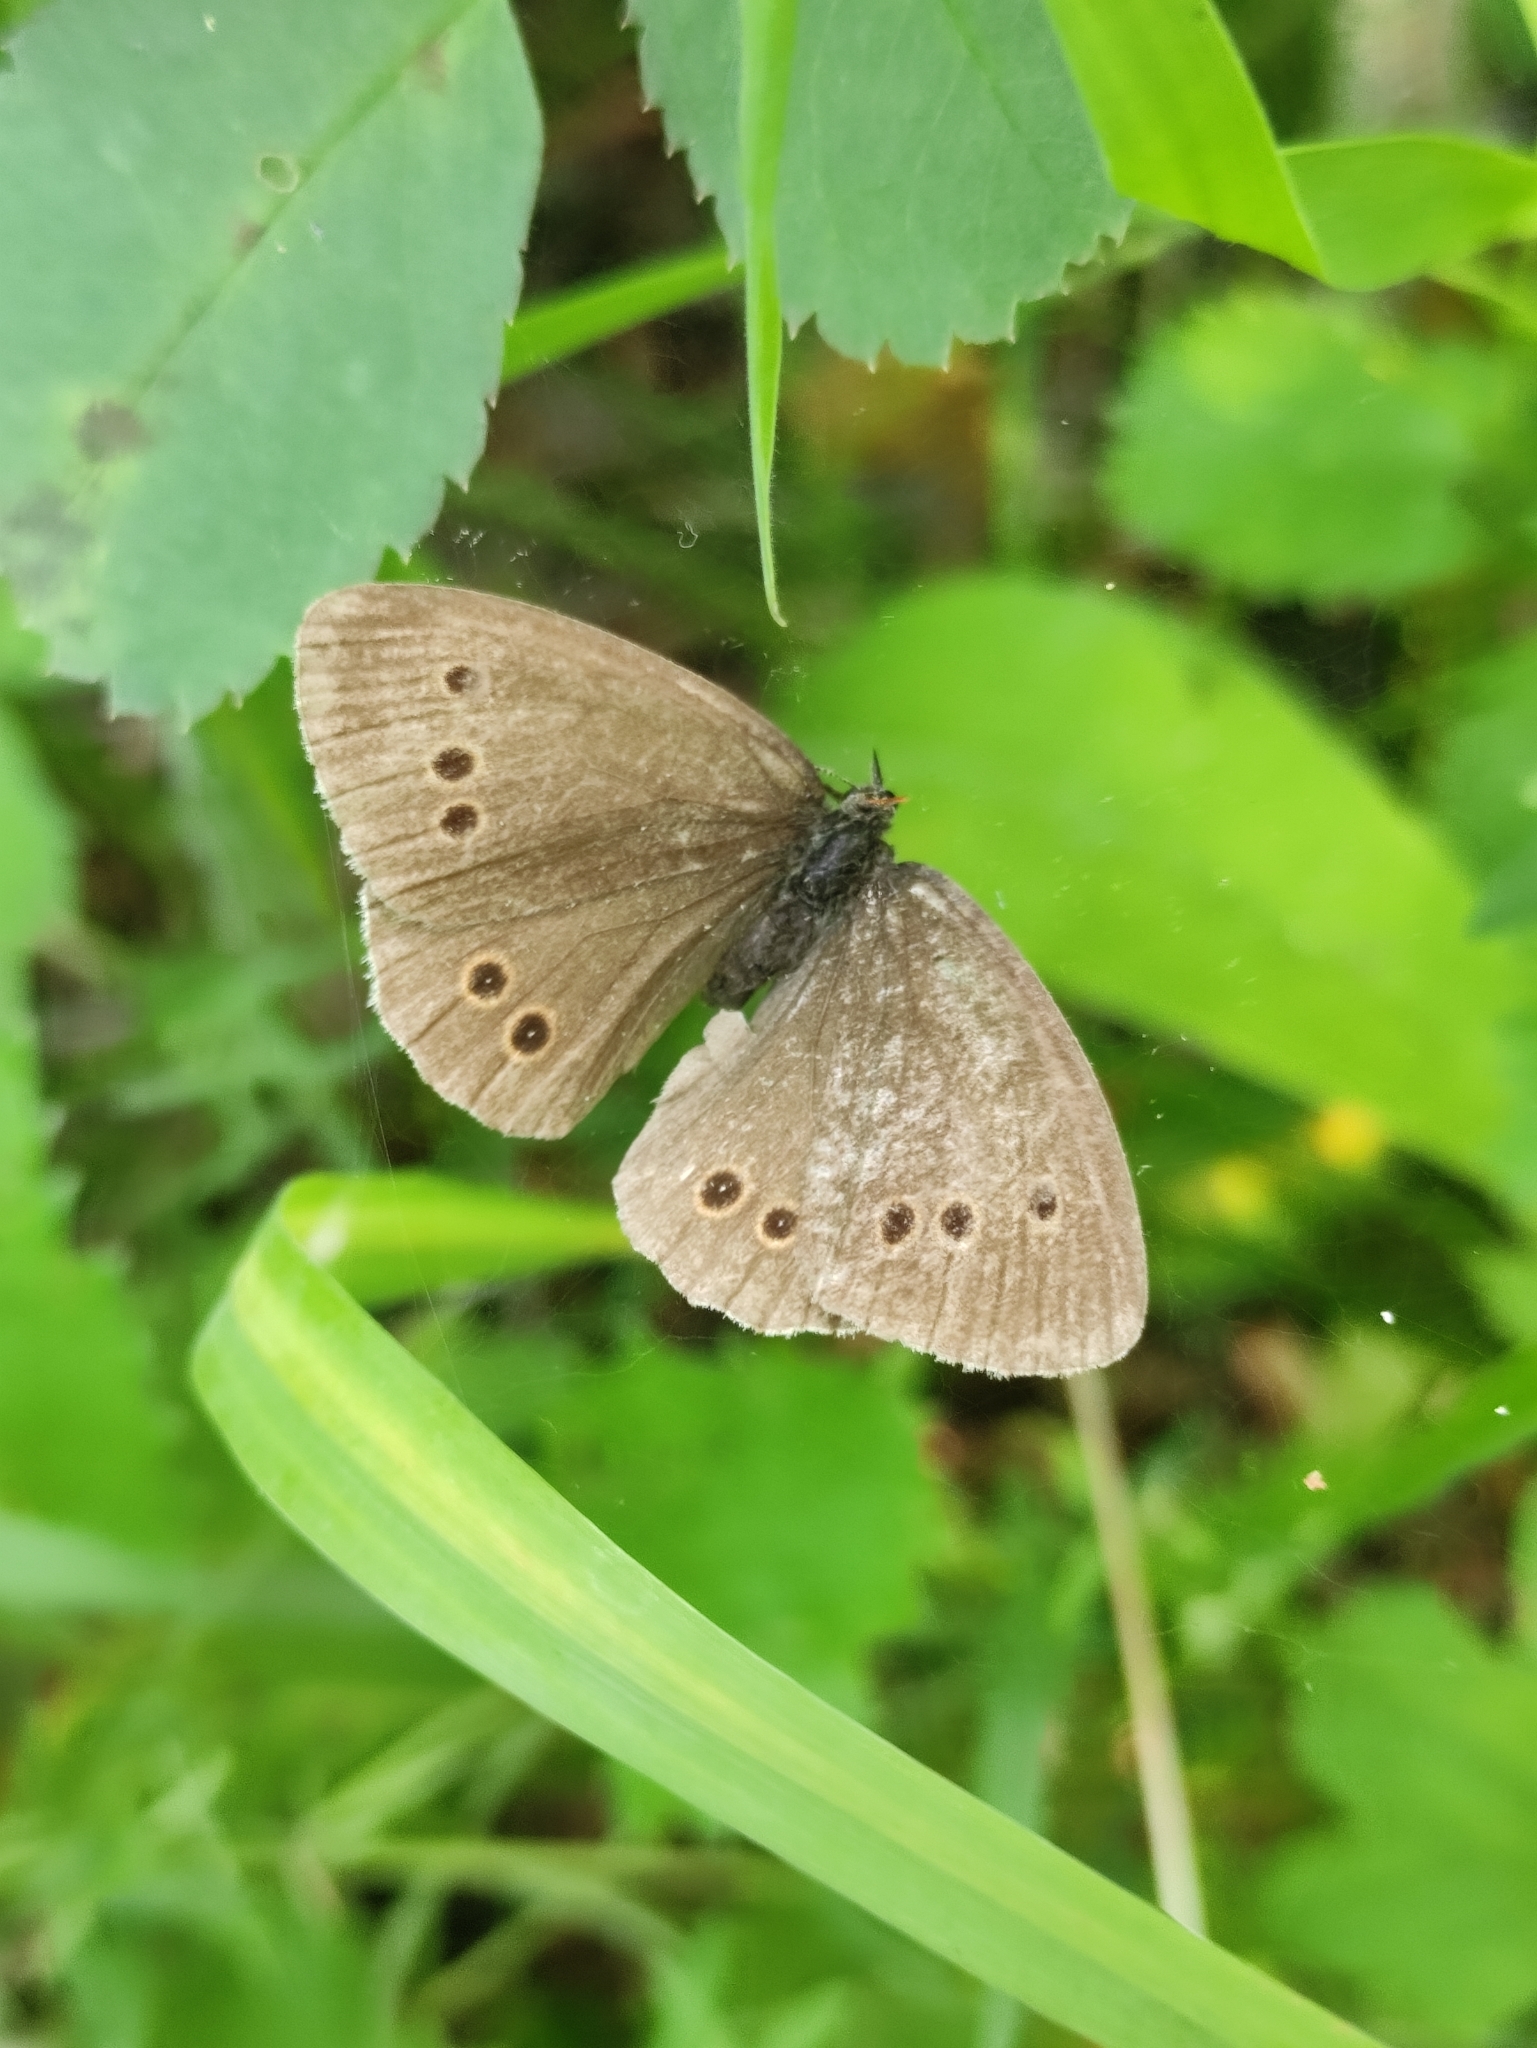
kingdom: Animalia
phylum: Arthropoda
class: Insecta
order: Lepidoptera
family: Nymphalidae
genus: Aphantopus
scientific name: Aphantopus hyperantus
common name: Ringlet
